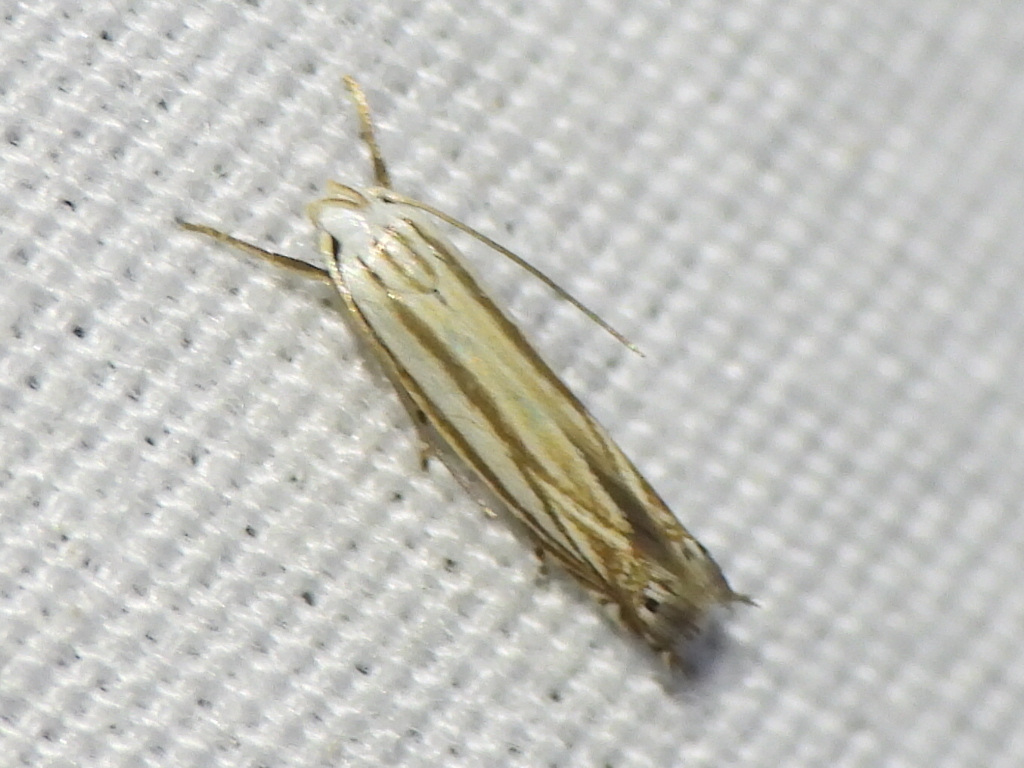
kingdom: Animalia
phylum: Arthropoda
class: Insecta
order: Lepidoptera
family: Gelechiidae
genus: Polyhymno
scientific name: Polyhymno luteostrigella
